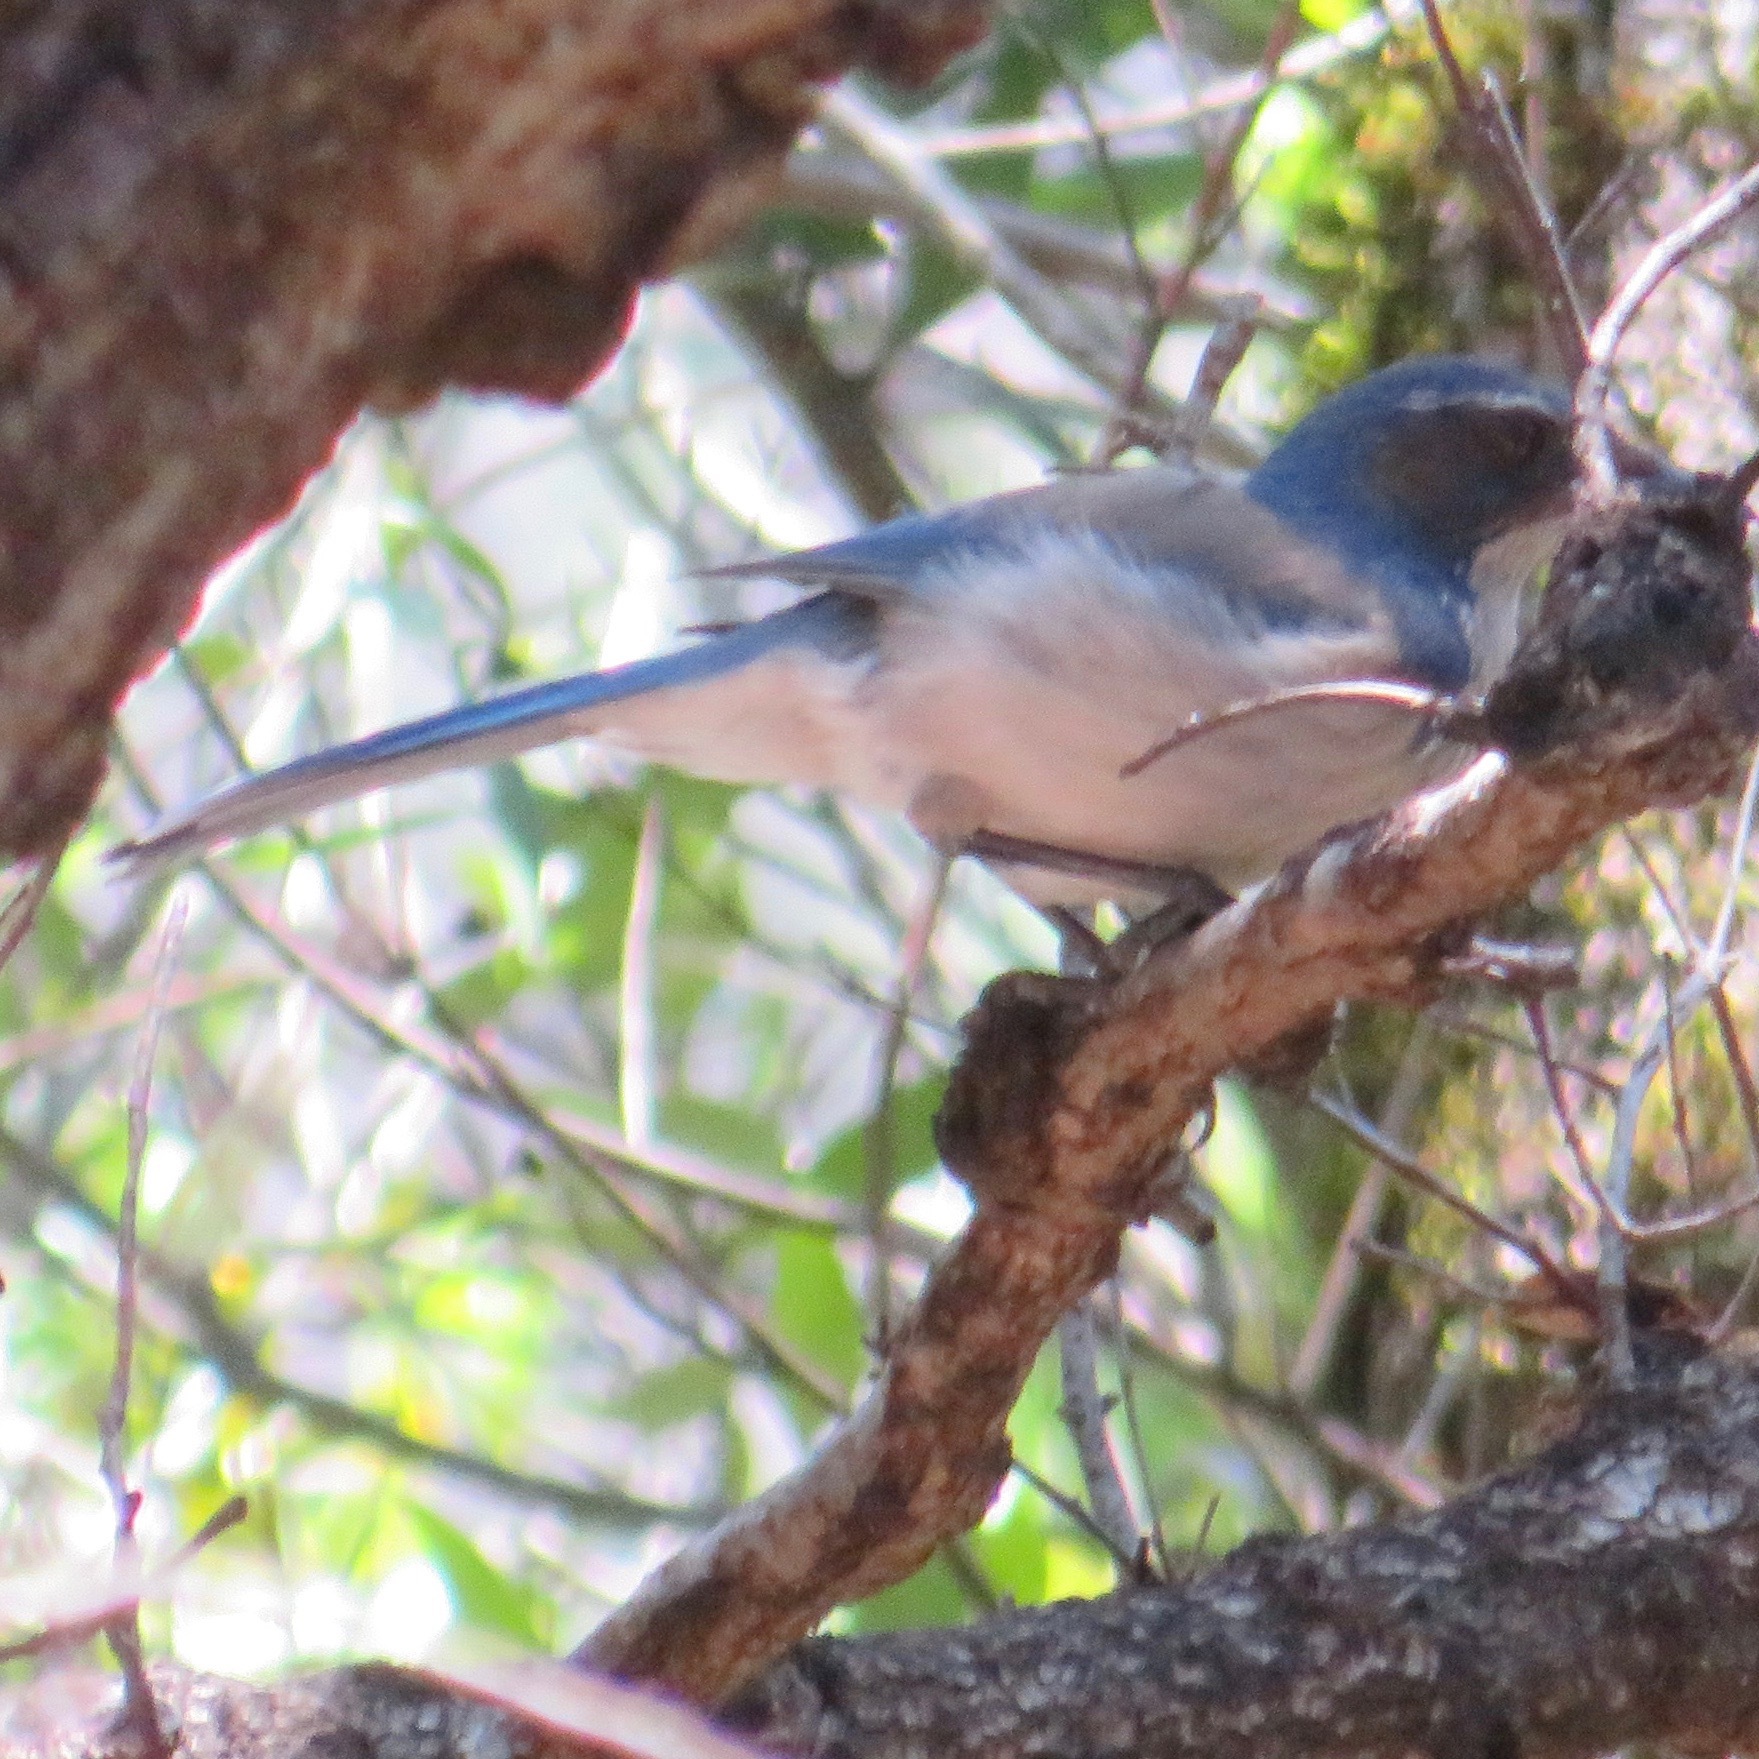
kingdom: Animalia
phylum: Chordata
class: Aves
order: Passeriformes
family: Corvidae
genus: Aphelocoma
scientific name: Aphelocoma californica
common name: California scrub-jay
